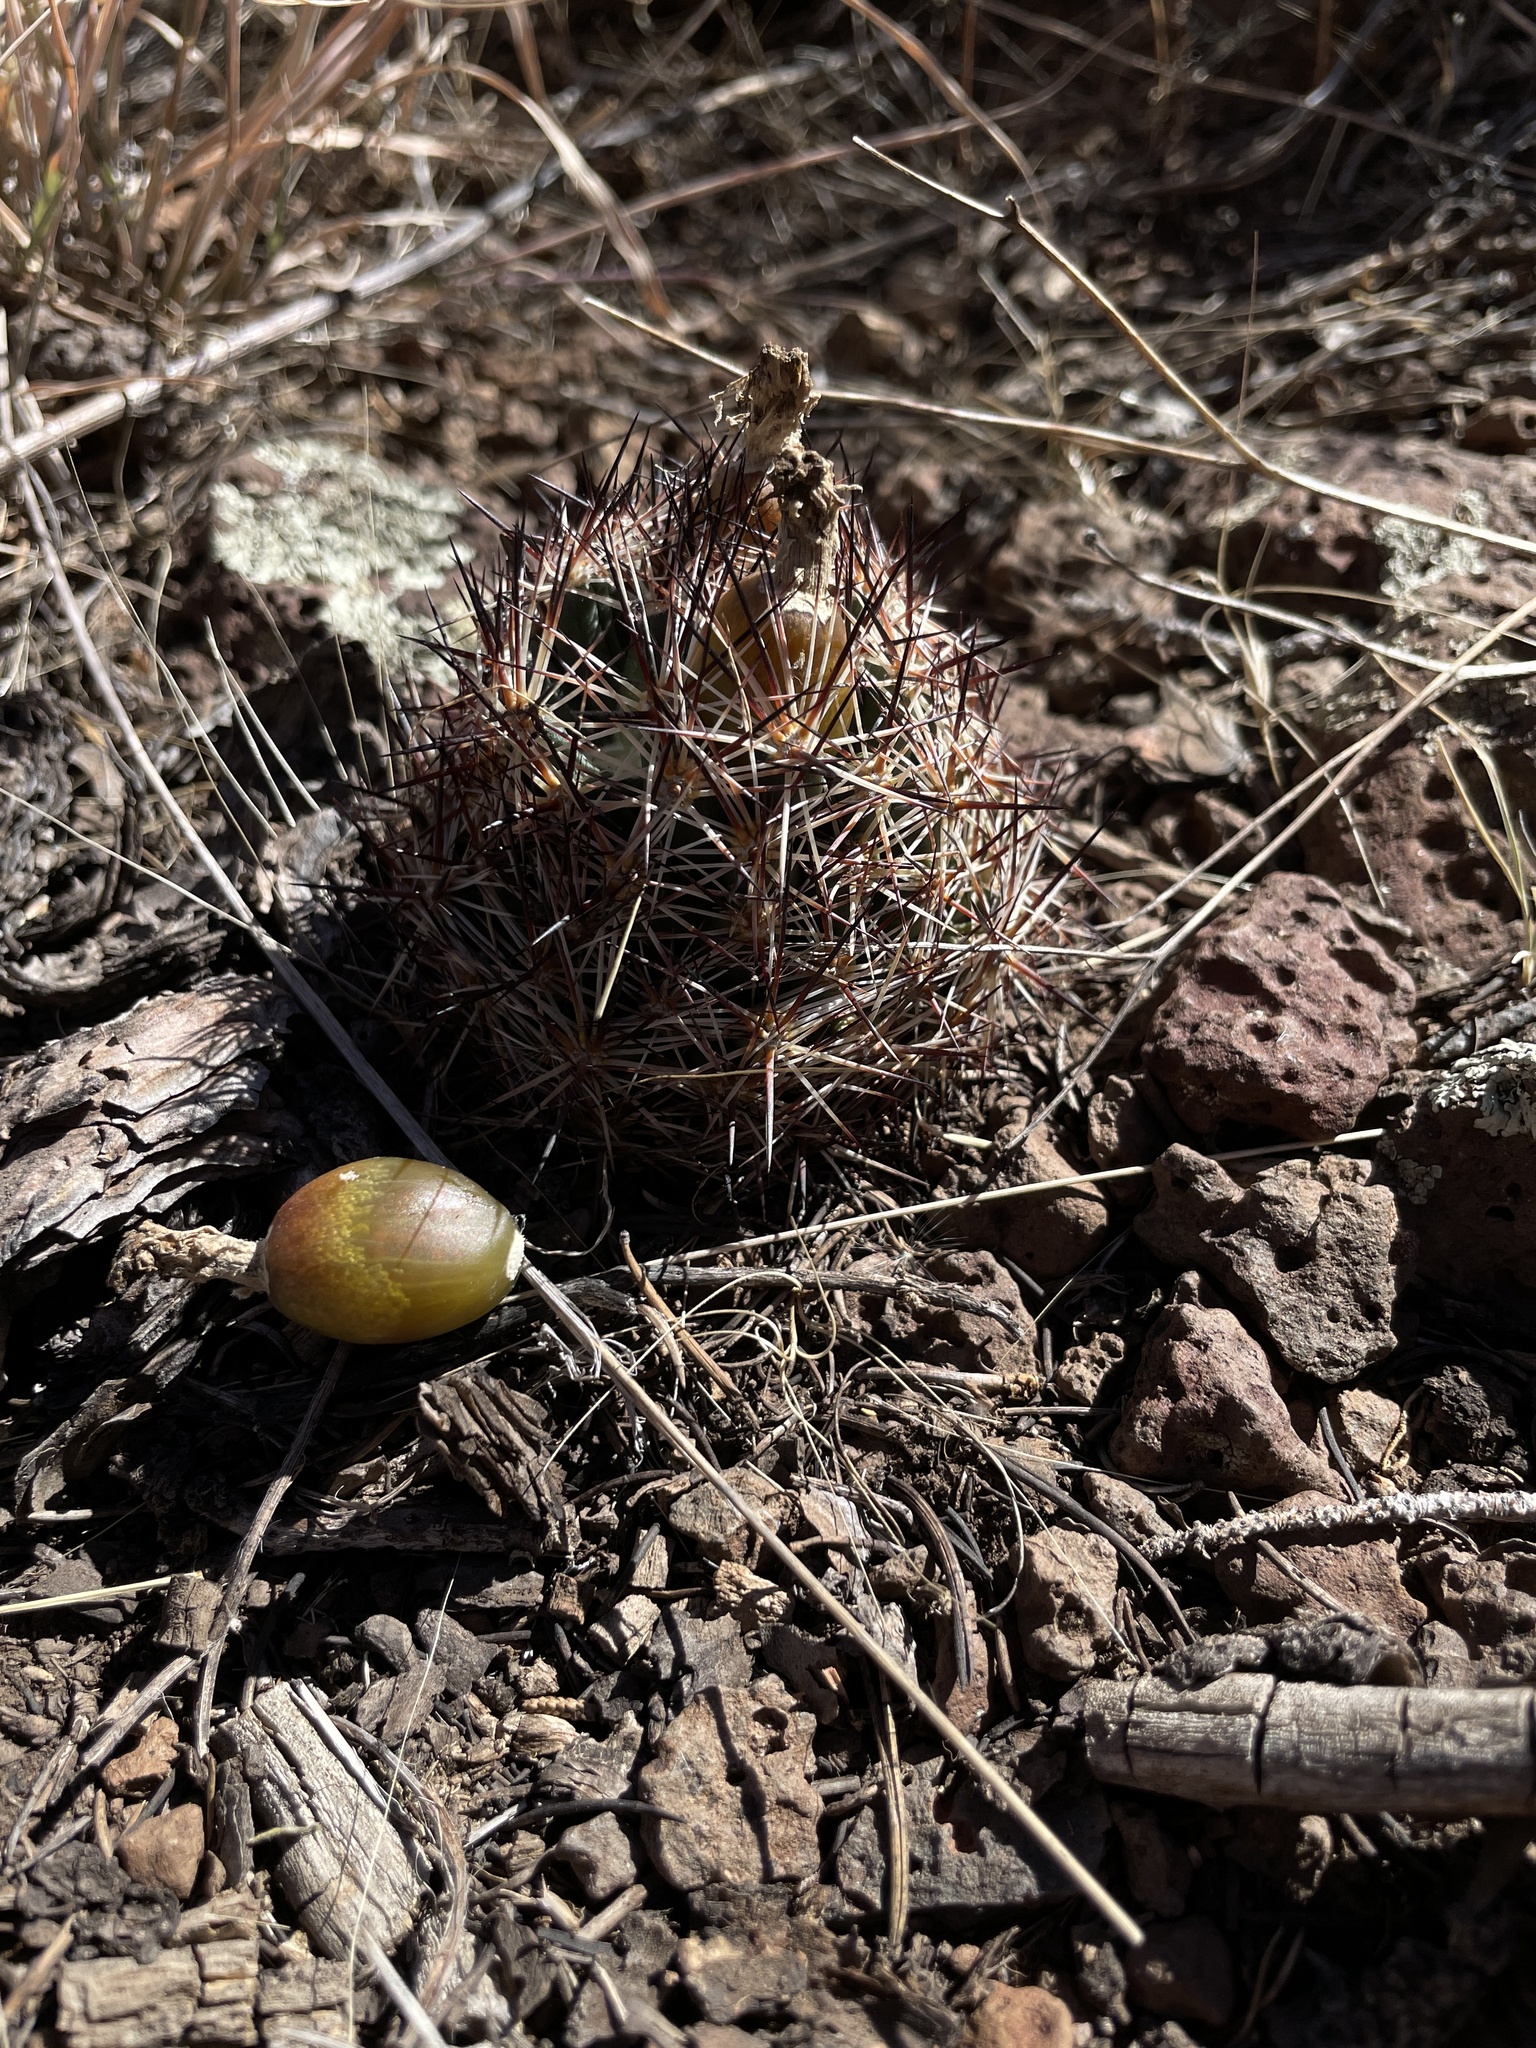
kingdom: Plantae
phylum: Tracheophyta
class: Magnoliopsida
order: Caryophyllales
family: Cactaceae
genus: Pelecyphora
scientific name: Pelecyphora vivipara
